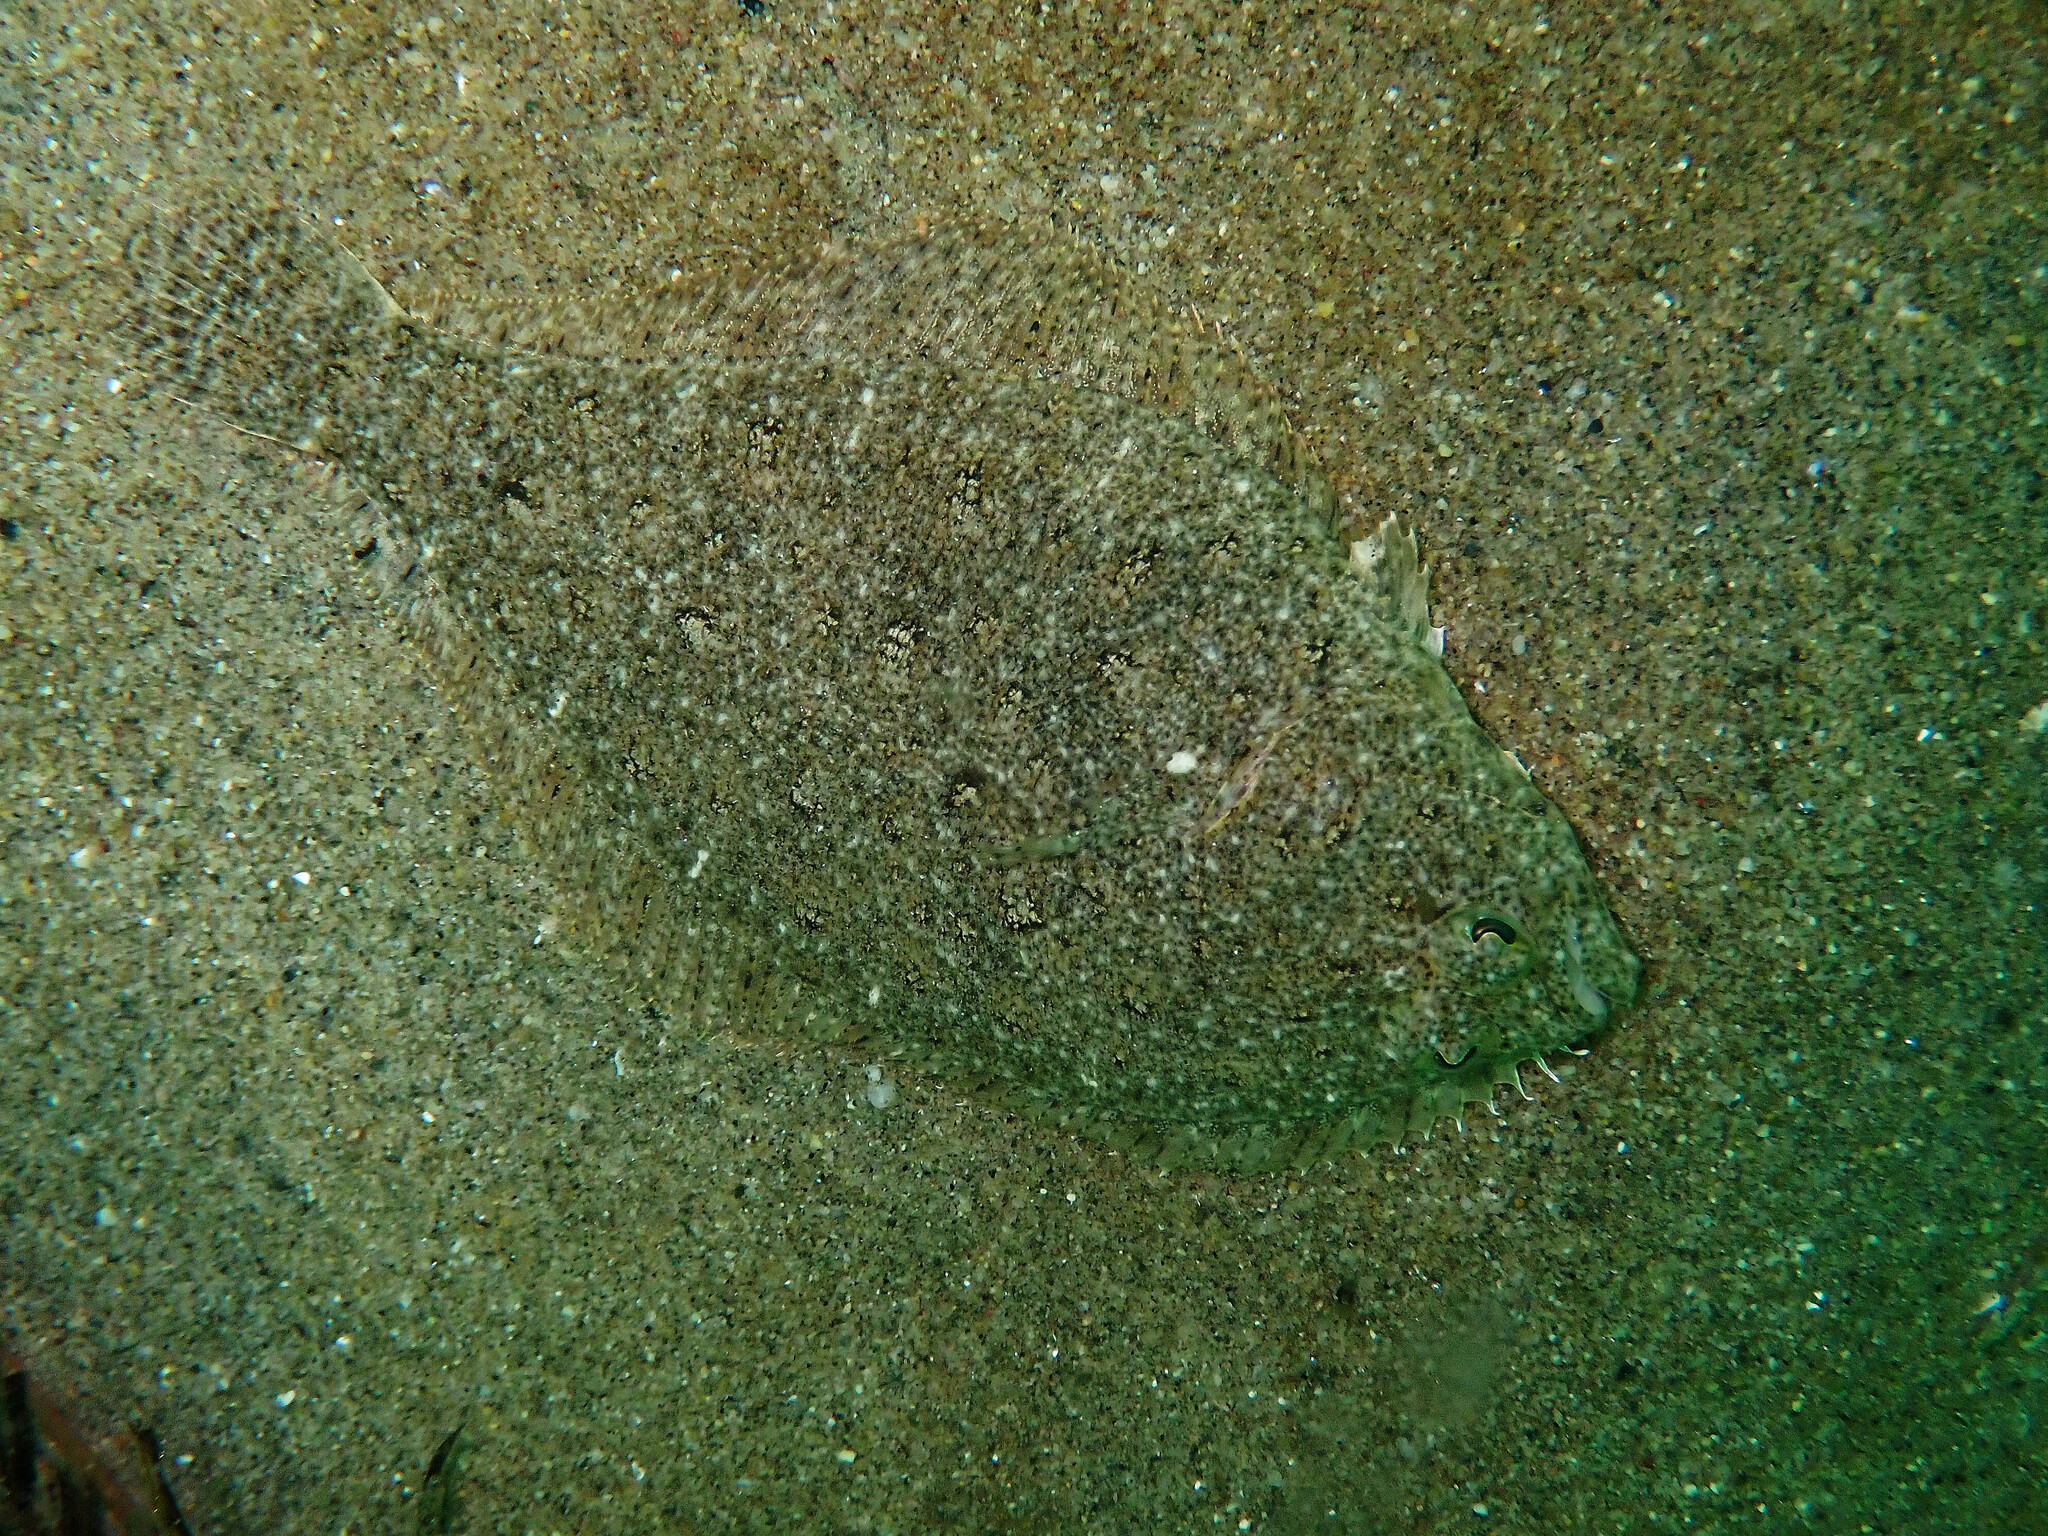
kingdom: Animalia
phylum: Chordata
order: Pleuronectiformes
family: Paralichthyidae
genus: Citharichthys
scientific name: Citharichthys stigmaeus
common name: Speckled sanddab
